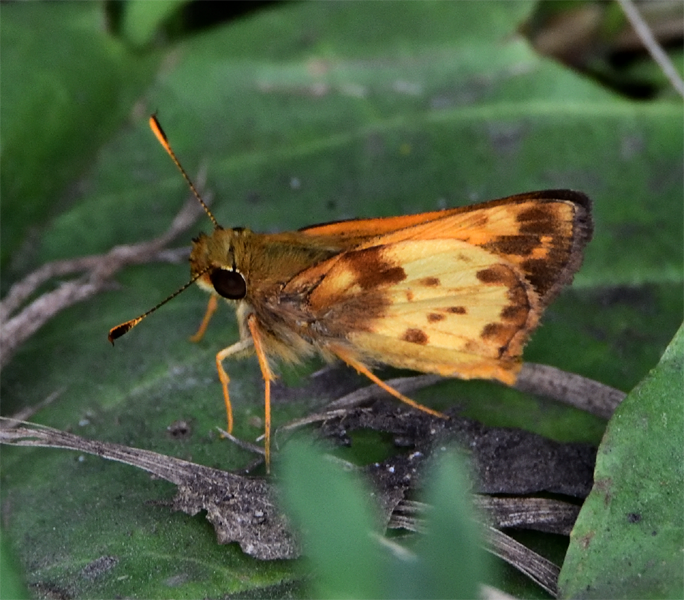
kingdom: Animalia
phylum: Arthropoda
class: Insecta
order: Lepidoptera
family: Hesperiidae
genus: Lon
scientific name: Lon zabulon
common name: Zabulon skipper
